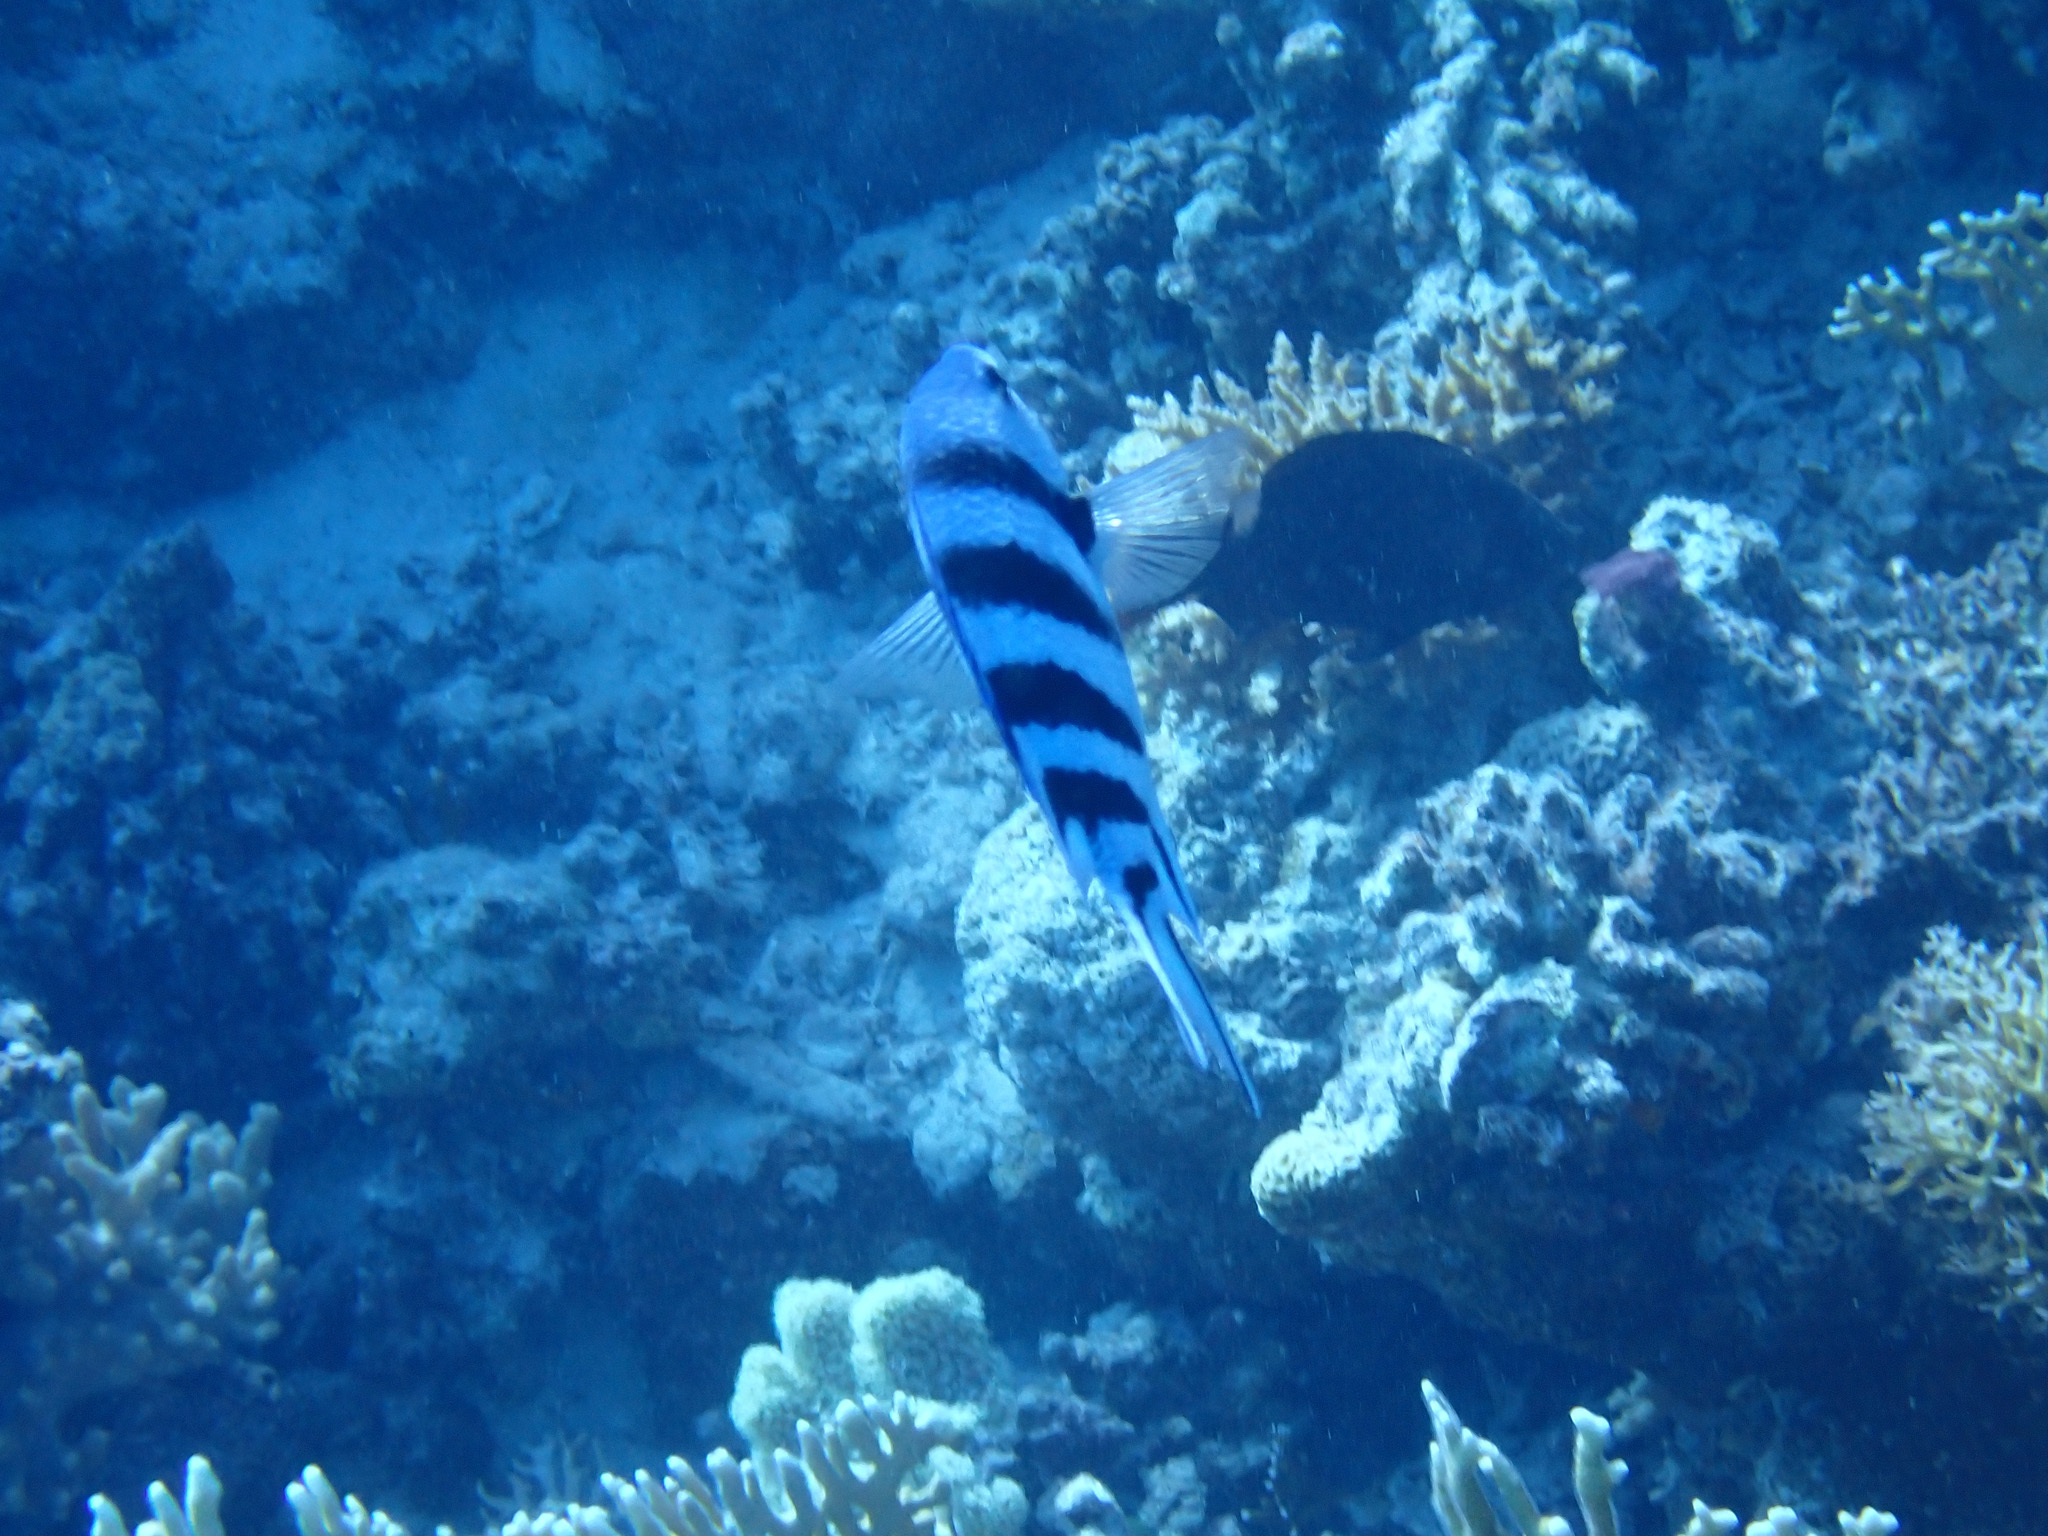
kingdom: Animalia
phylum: Chordata
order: Perciformes
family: Pomacentridae
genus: Abudefduf
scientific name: Abudefduf sexfasciatus
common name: Scissortail sergeant
